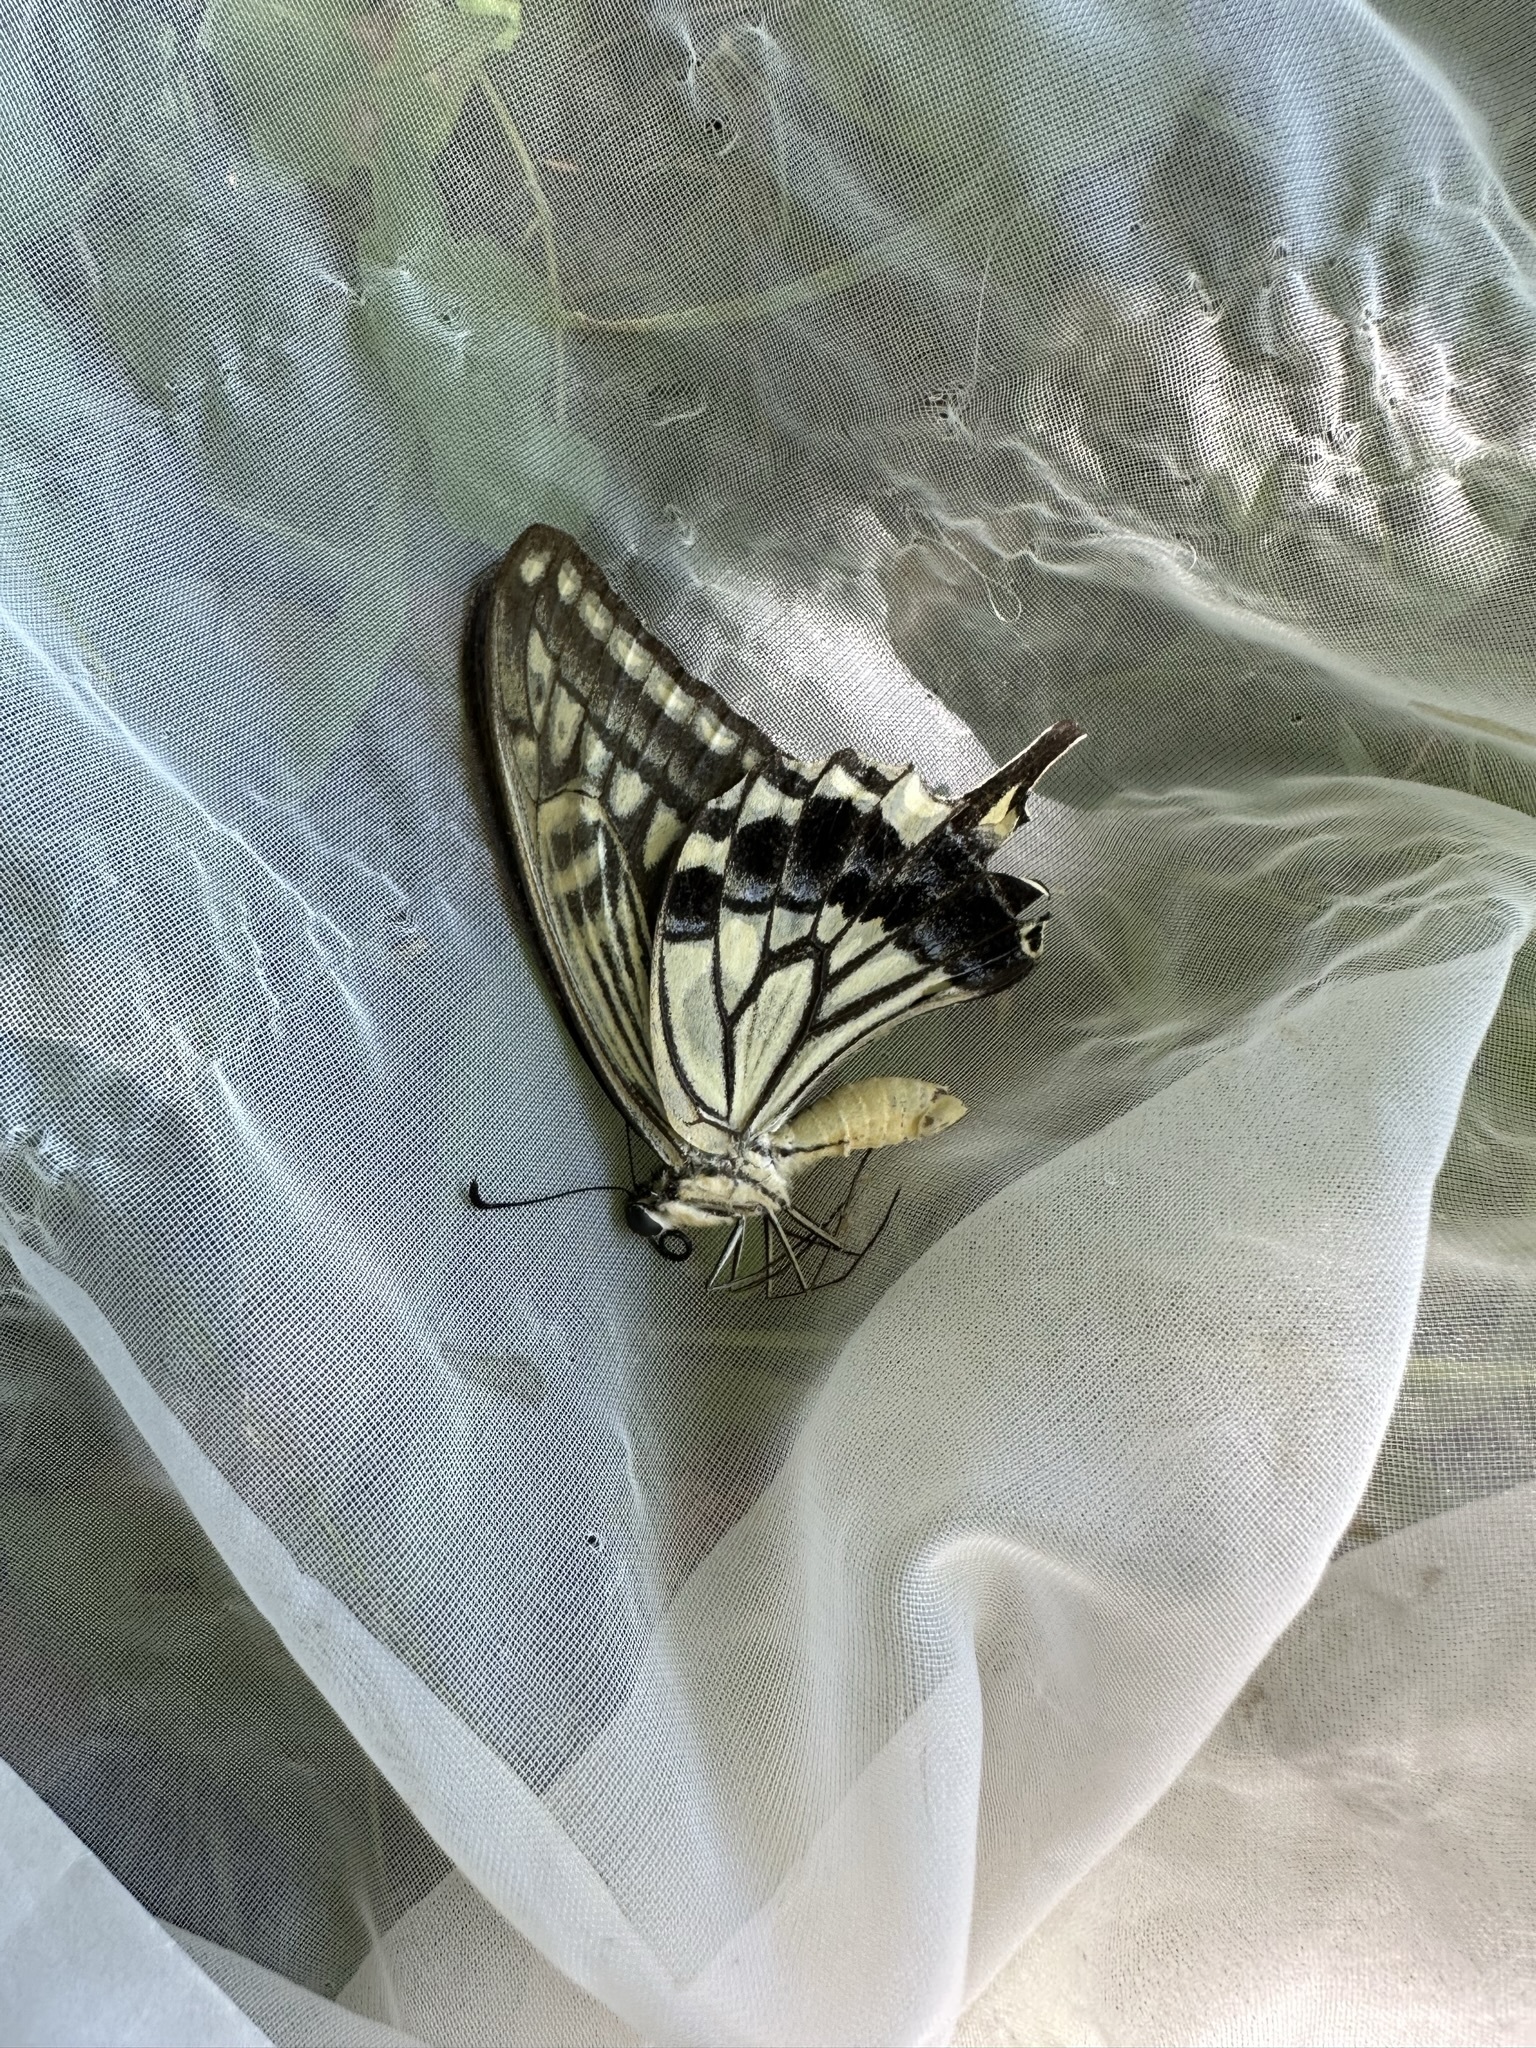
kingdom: Animalia
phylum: Arthropoda
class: Insecta
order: Lepidoptera
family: Papilionidae
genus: Papilio
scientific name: Papilio xuthus
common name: Asian swallowtail
